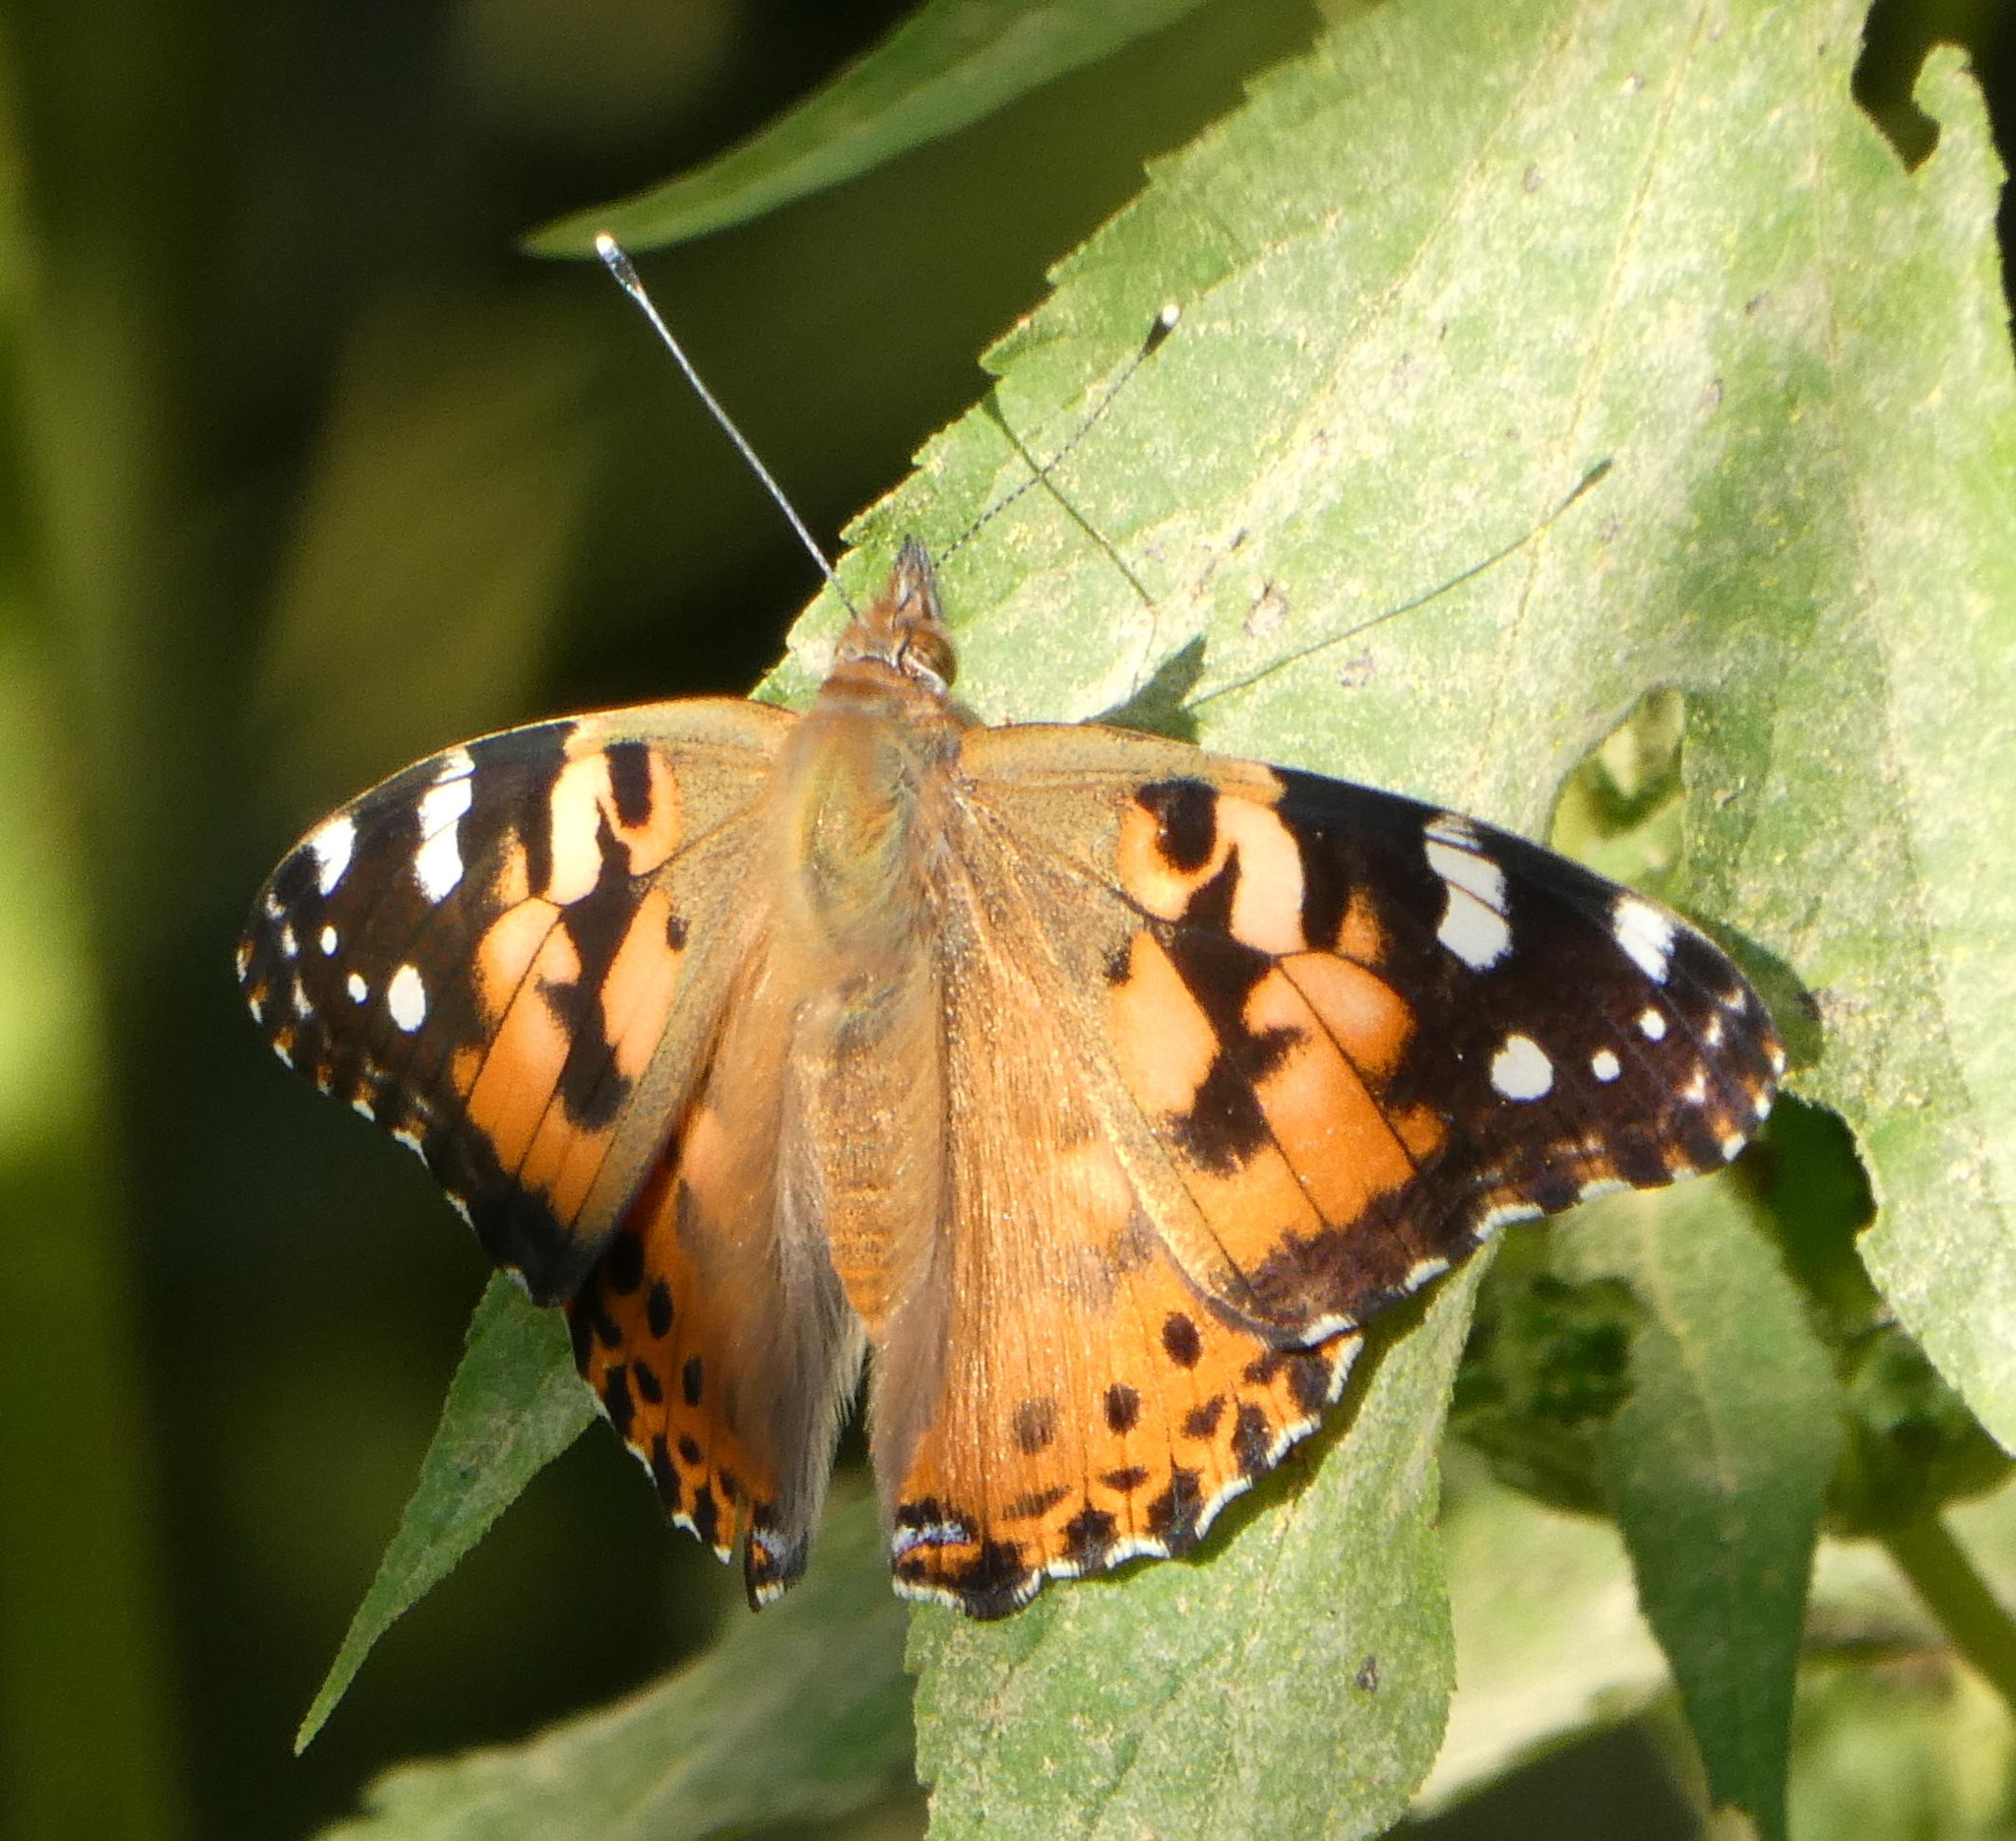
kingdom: Animalia
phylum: Arthropoda
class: Insecta
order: Lepidoptera
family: Nymphalidae
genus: Vanessa
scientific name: Vanessa cardui
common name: Painted lady
